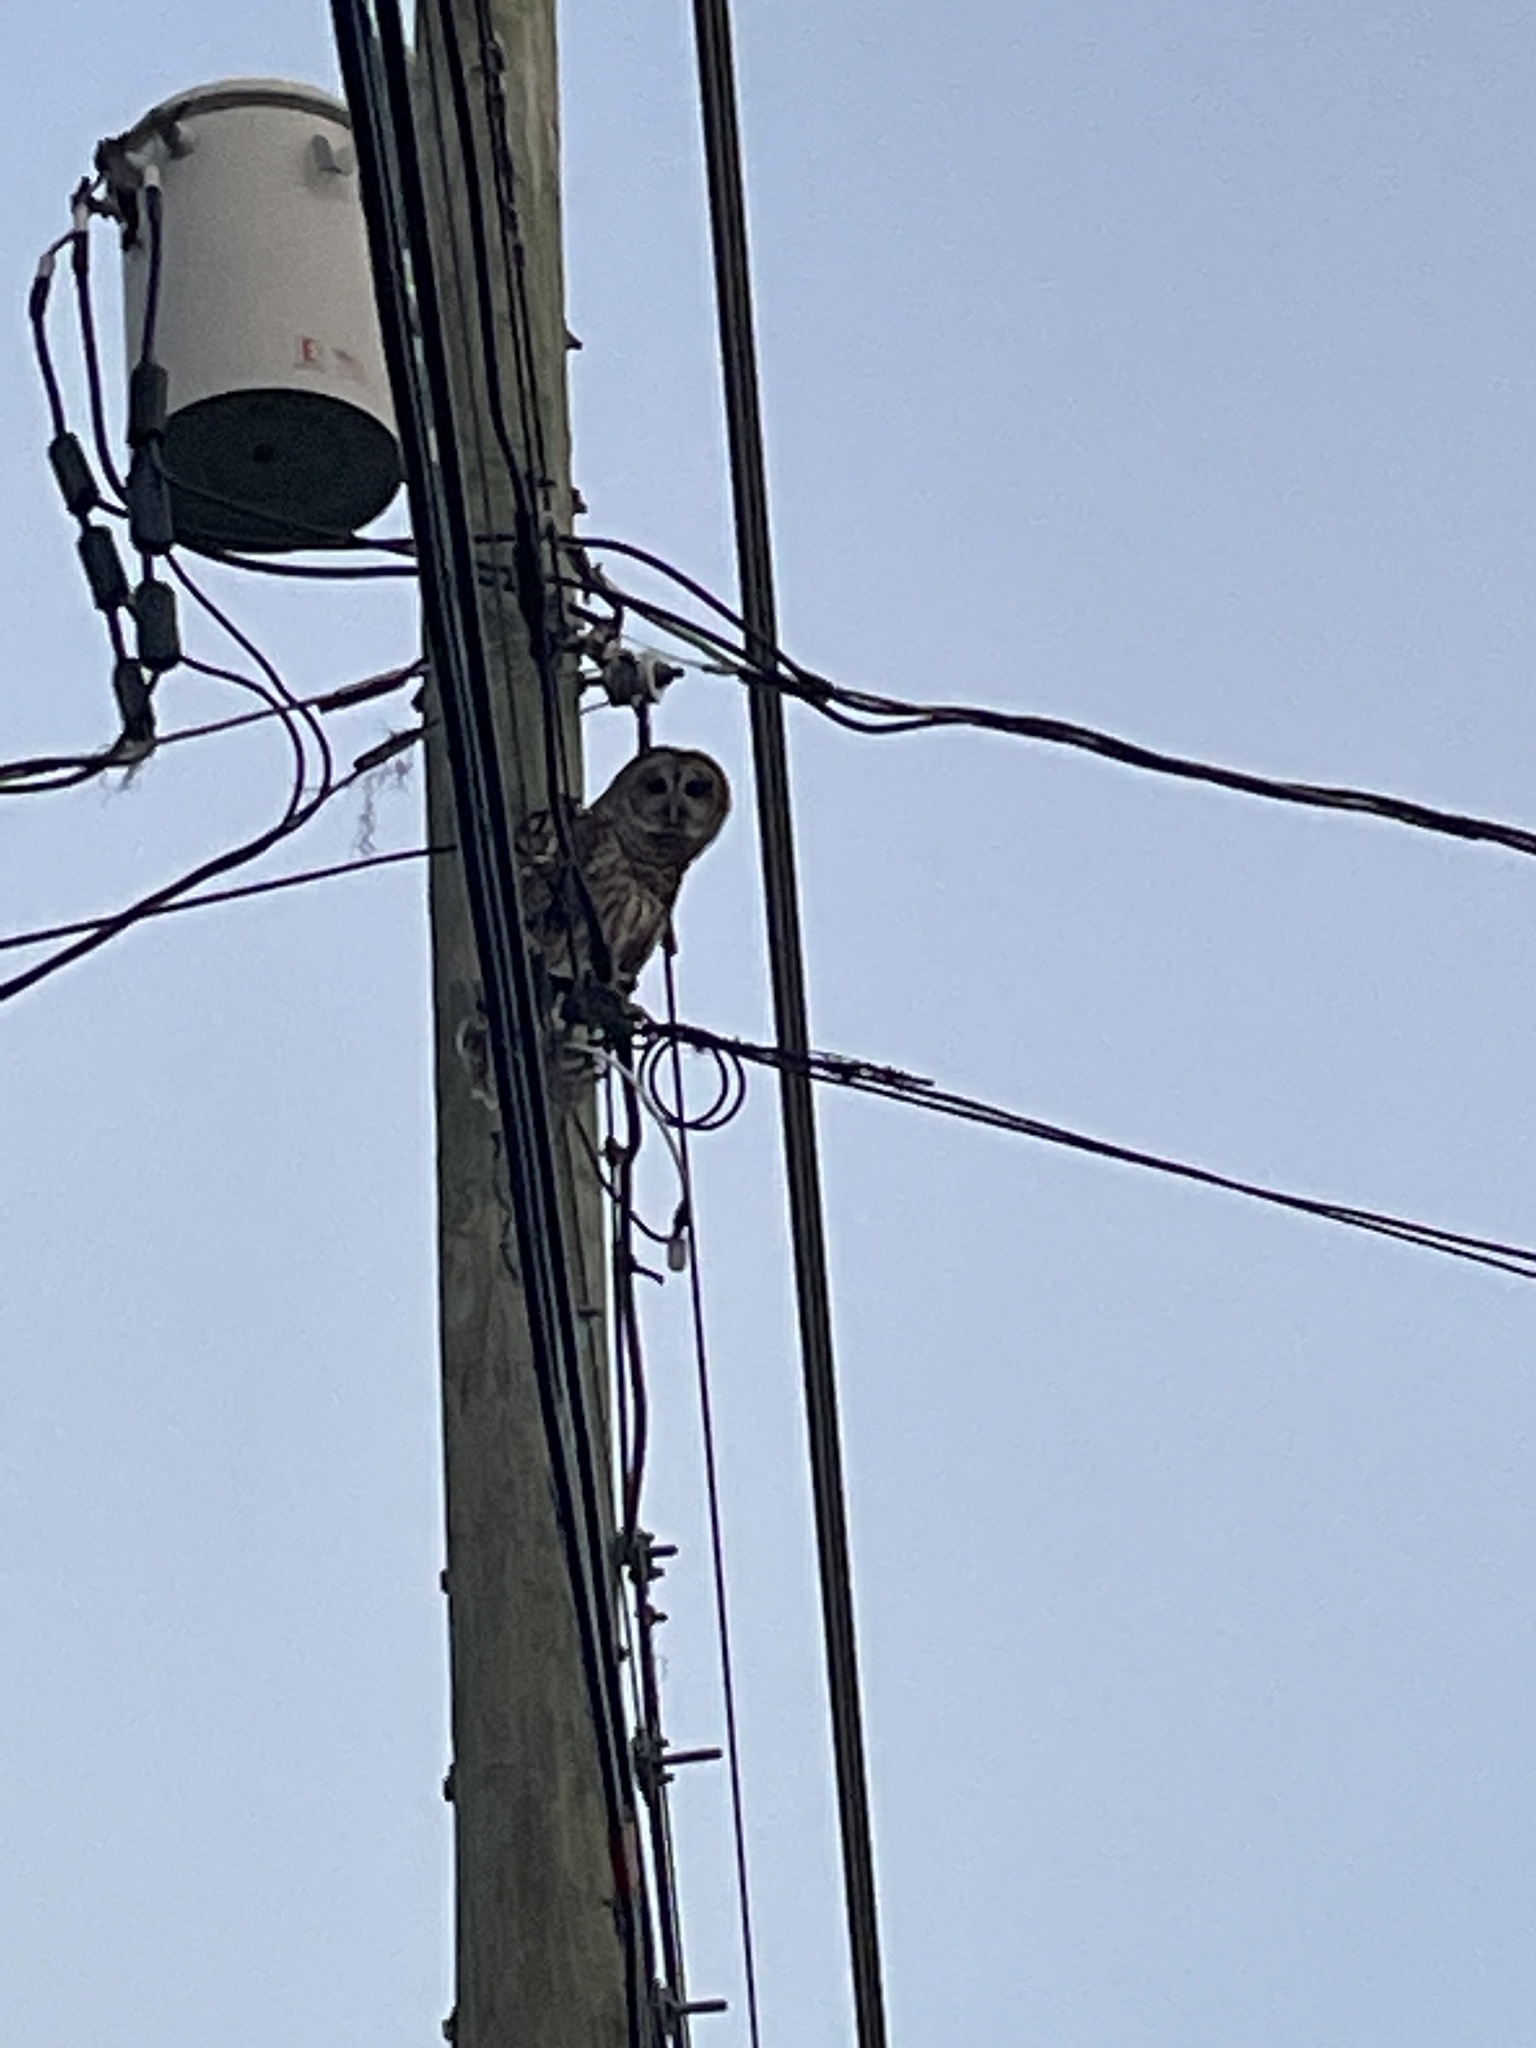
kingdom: Animalia
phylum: Chordata
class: Aves
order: Strigiformes
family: Strigidae
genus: Strix
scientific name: Strix varia
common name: Barred owl
